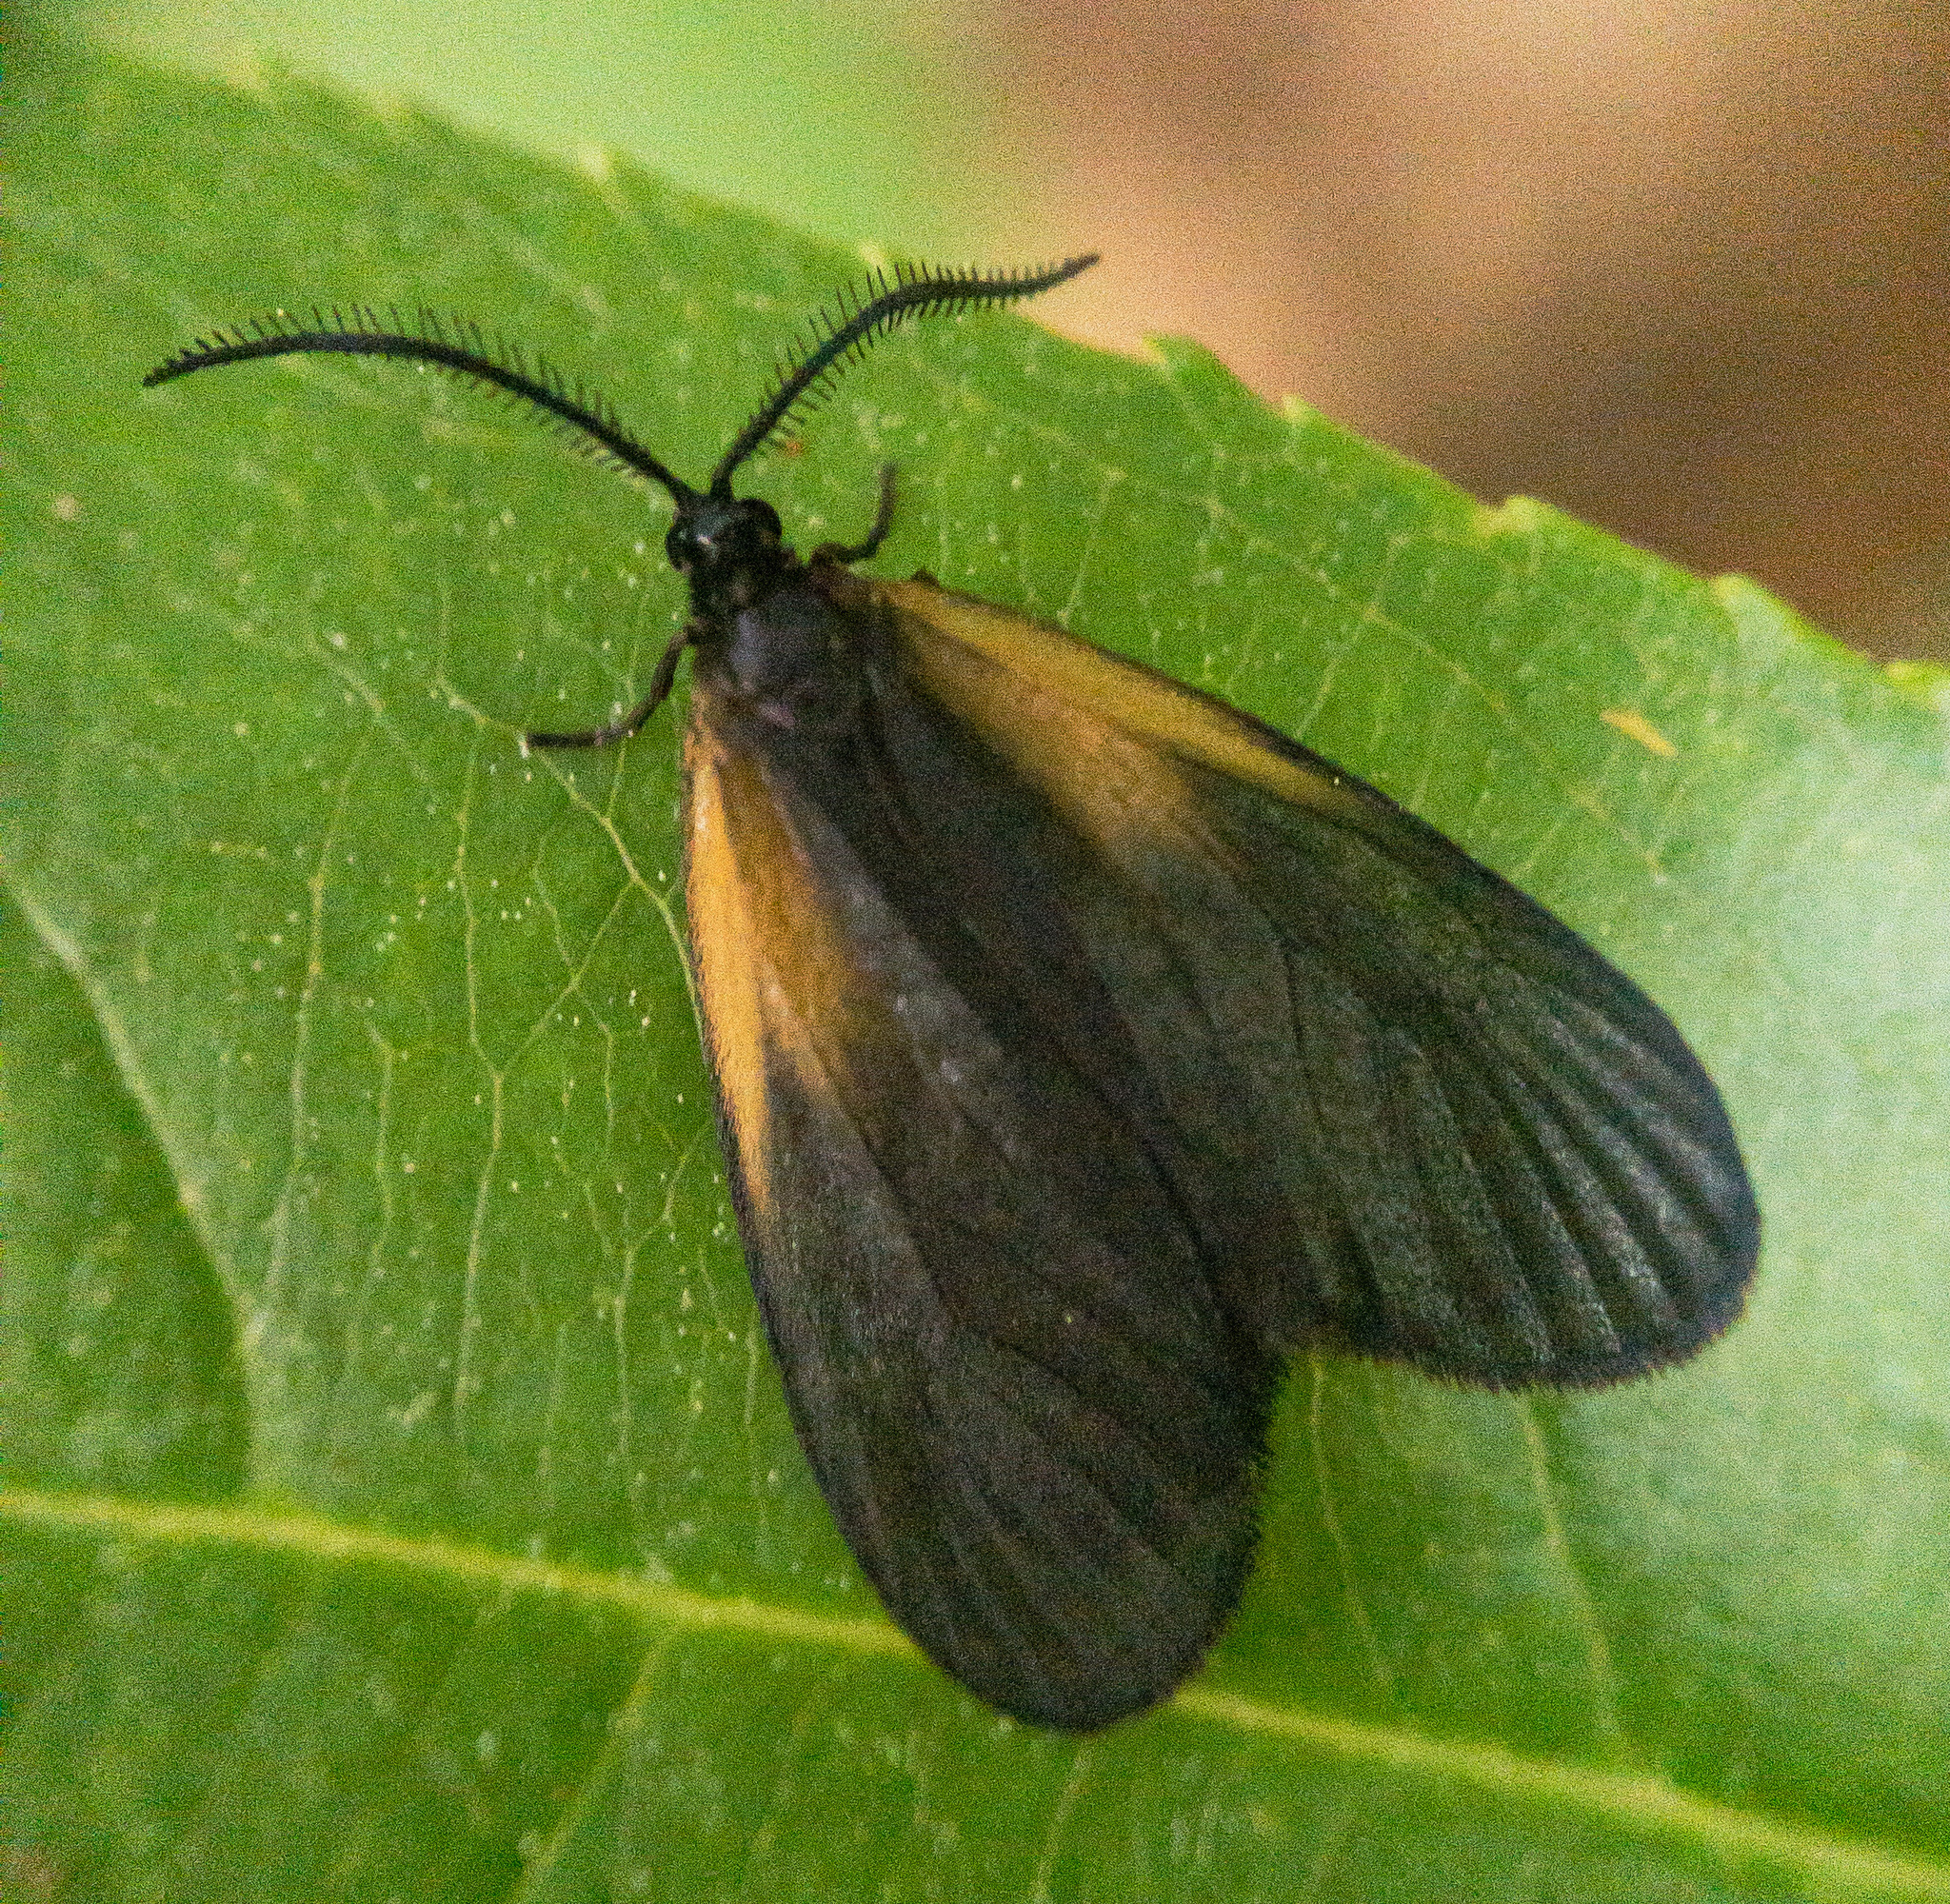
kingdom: Animalia
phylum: Arthropoda
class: Insecta
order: Lepidoptera
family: Zygaenidae
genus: Malthaca
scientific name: Malthaca dimidiata
